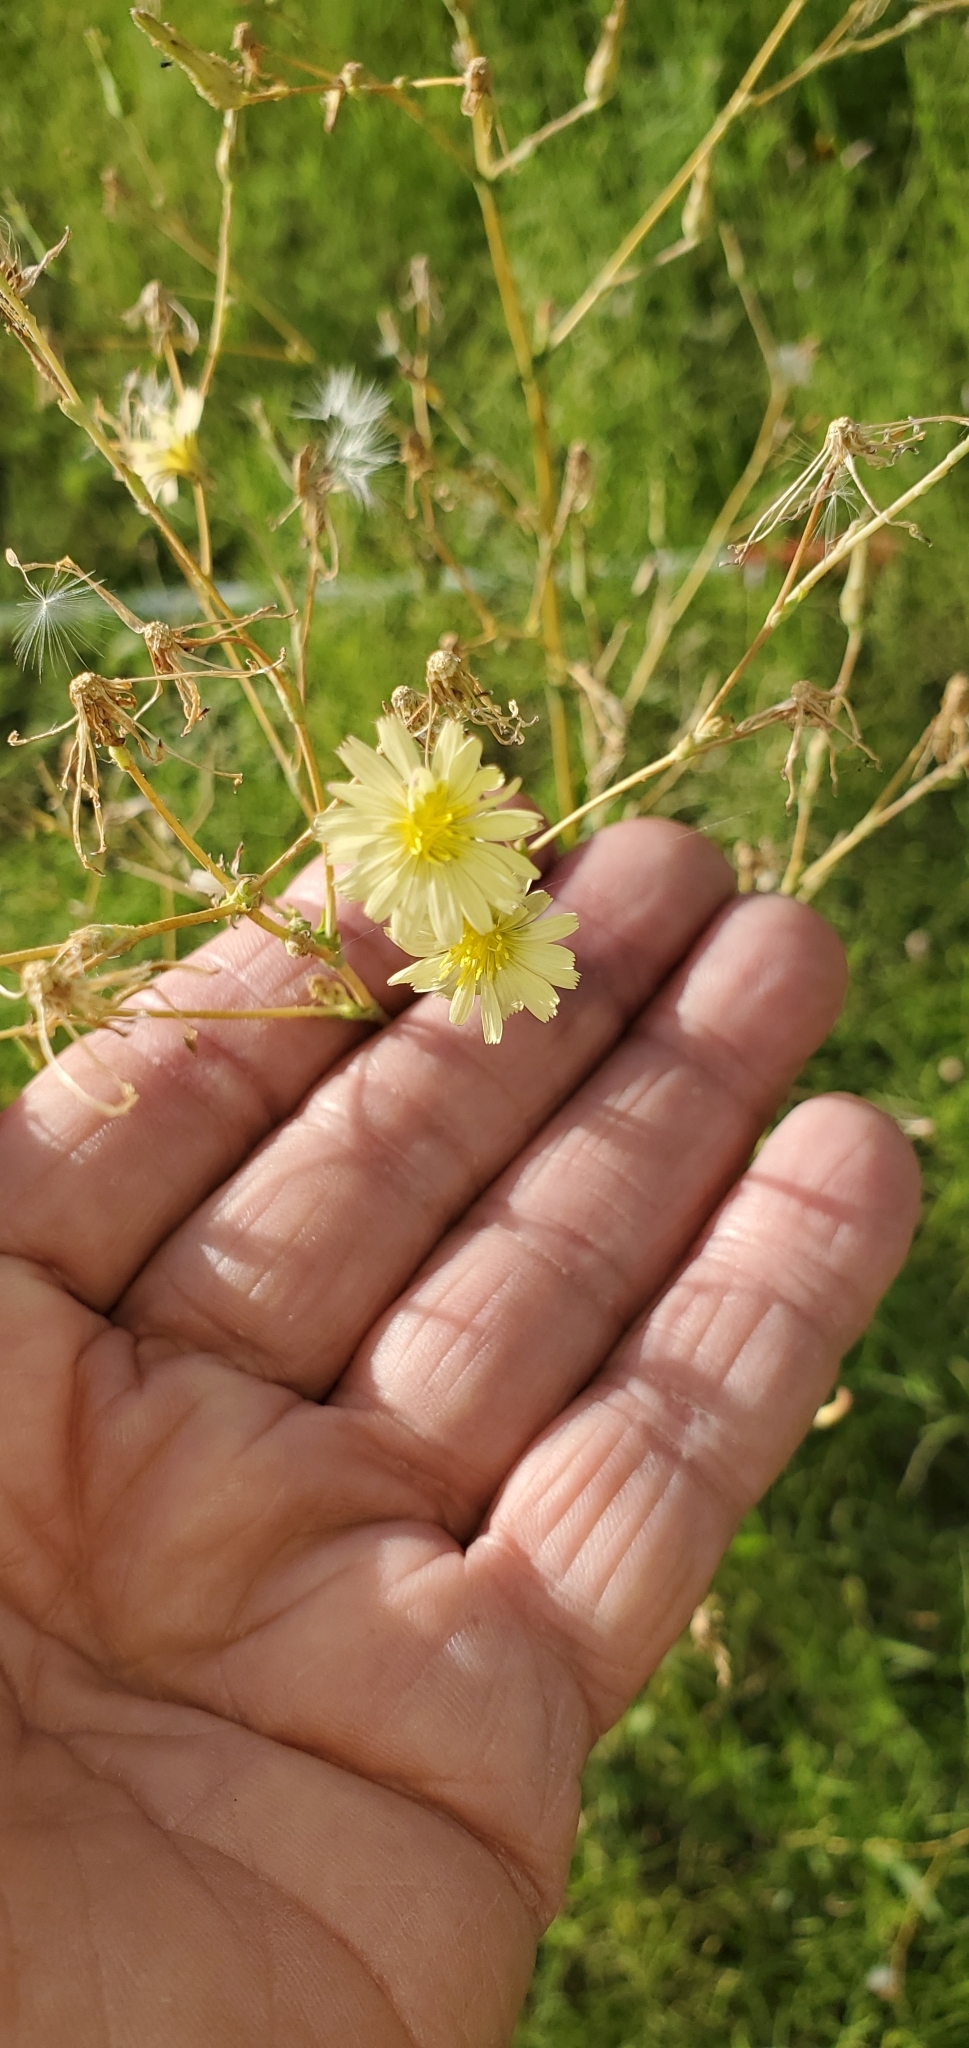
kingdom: Plantae
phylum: Tracheophyta
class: Magnoliopsida
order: Asterales
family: Asteraceae
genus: Lactuca
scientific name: Lactuca serriola
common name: Prickly lettuce
